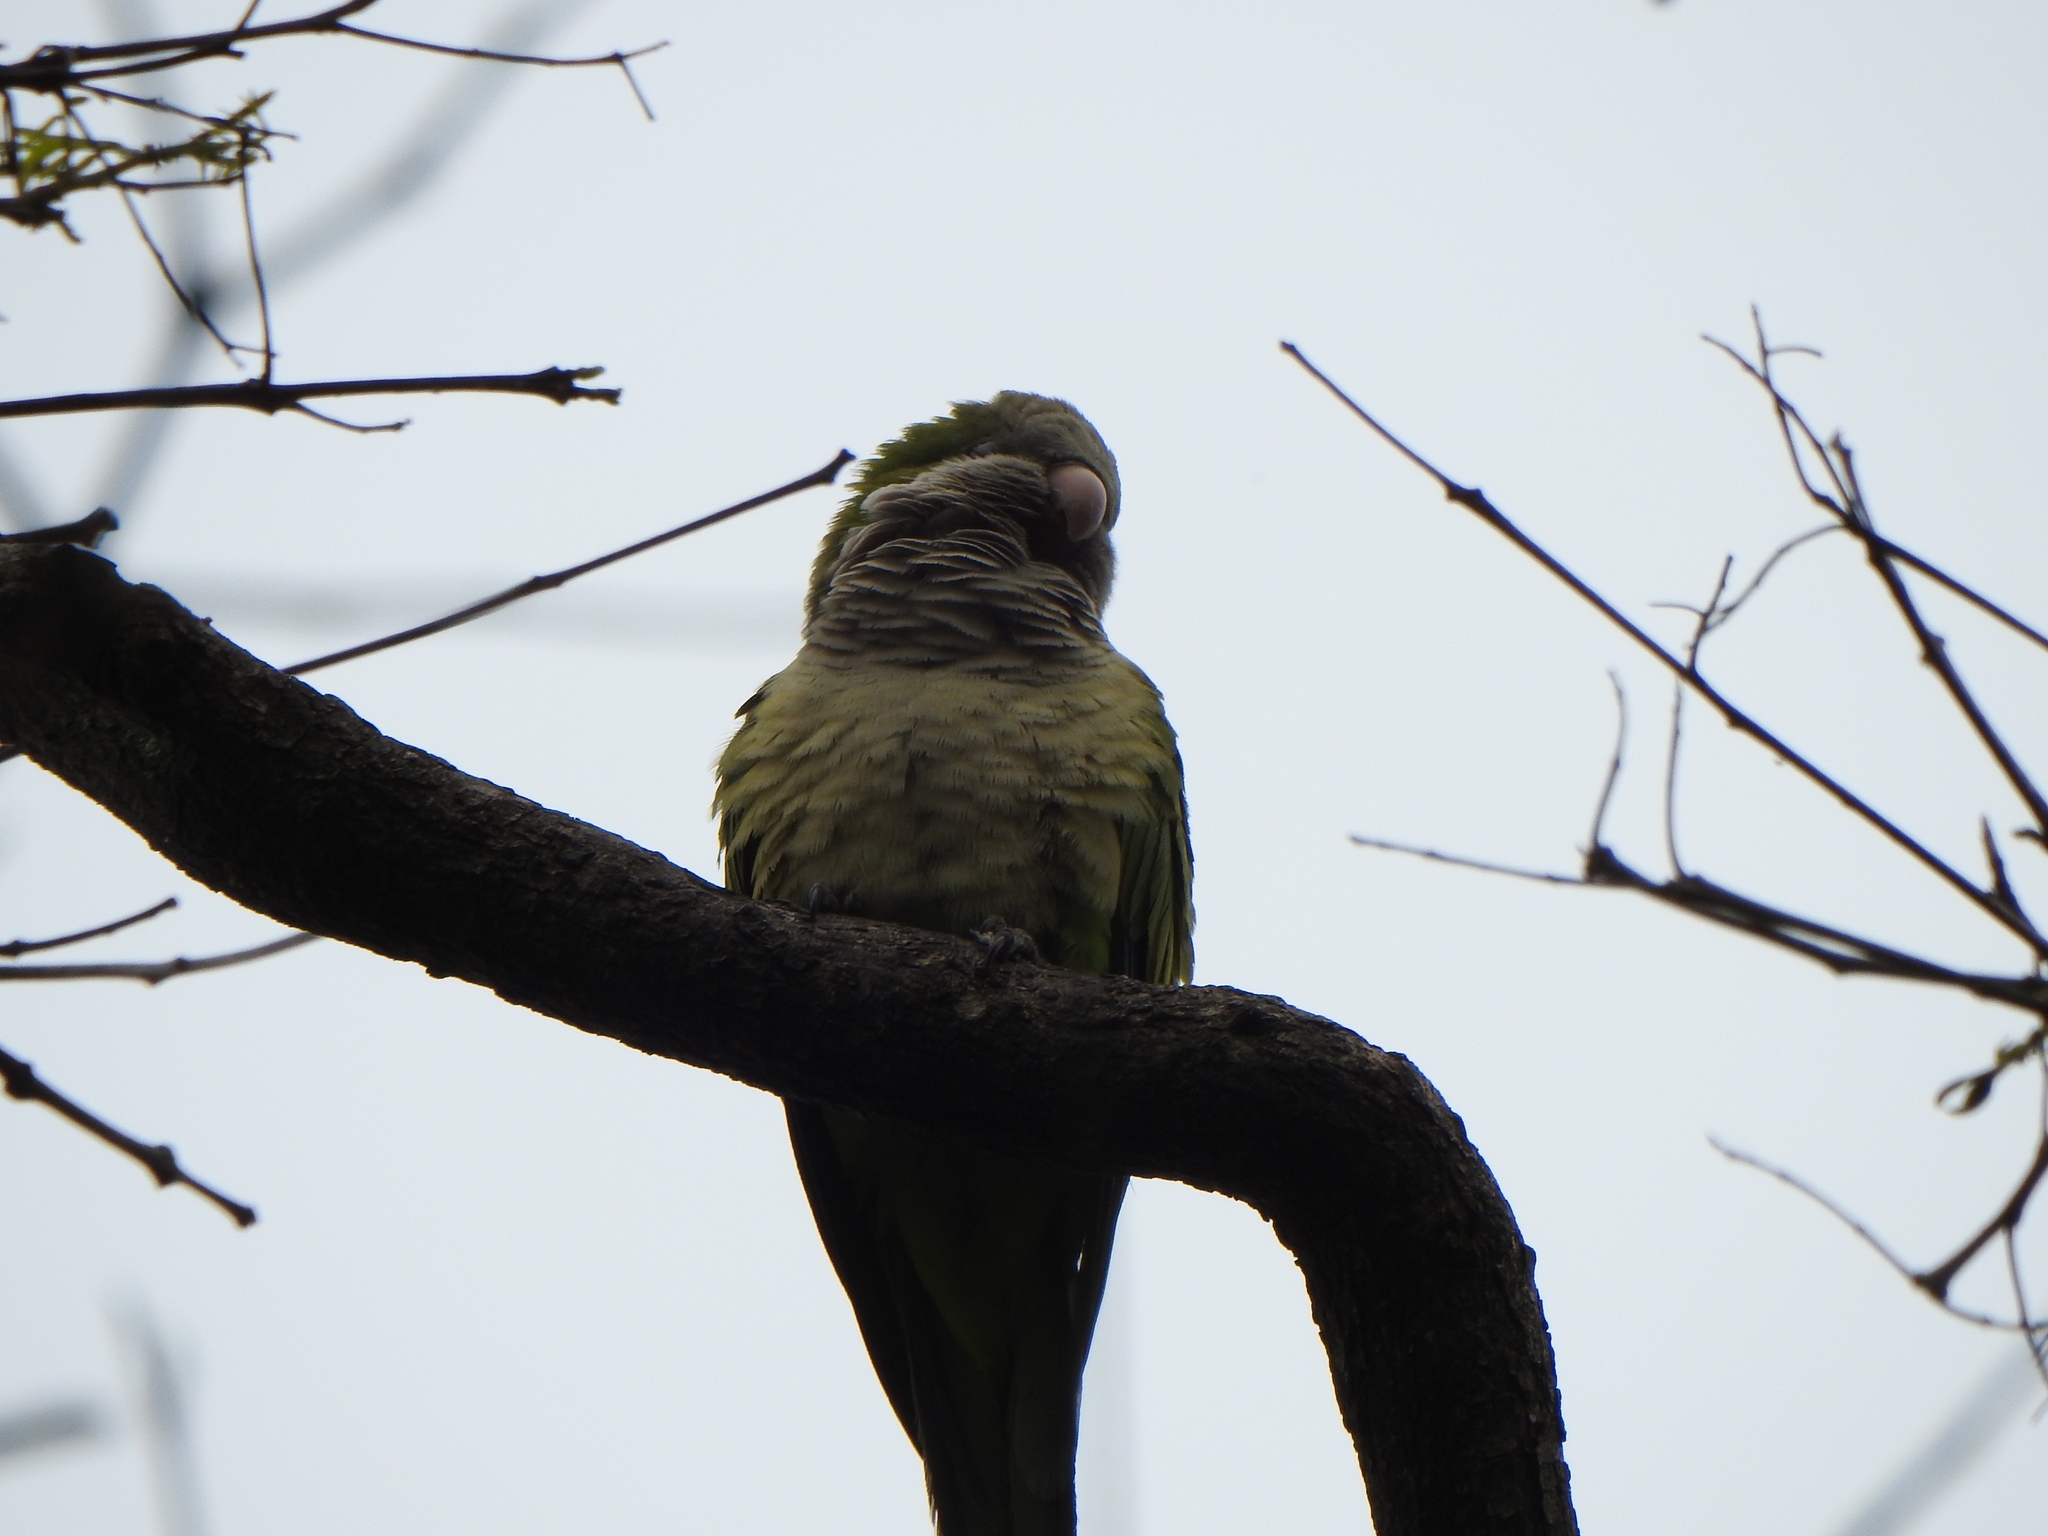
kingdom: Animalia
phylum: Chordata
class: Aves
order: Psittaciformes
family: Psittacidae
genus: Myiopsitta
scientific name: Myiopsitta monachus
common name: Monk parakeet
